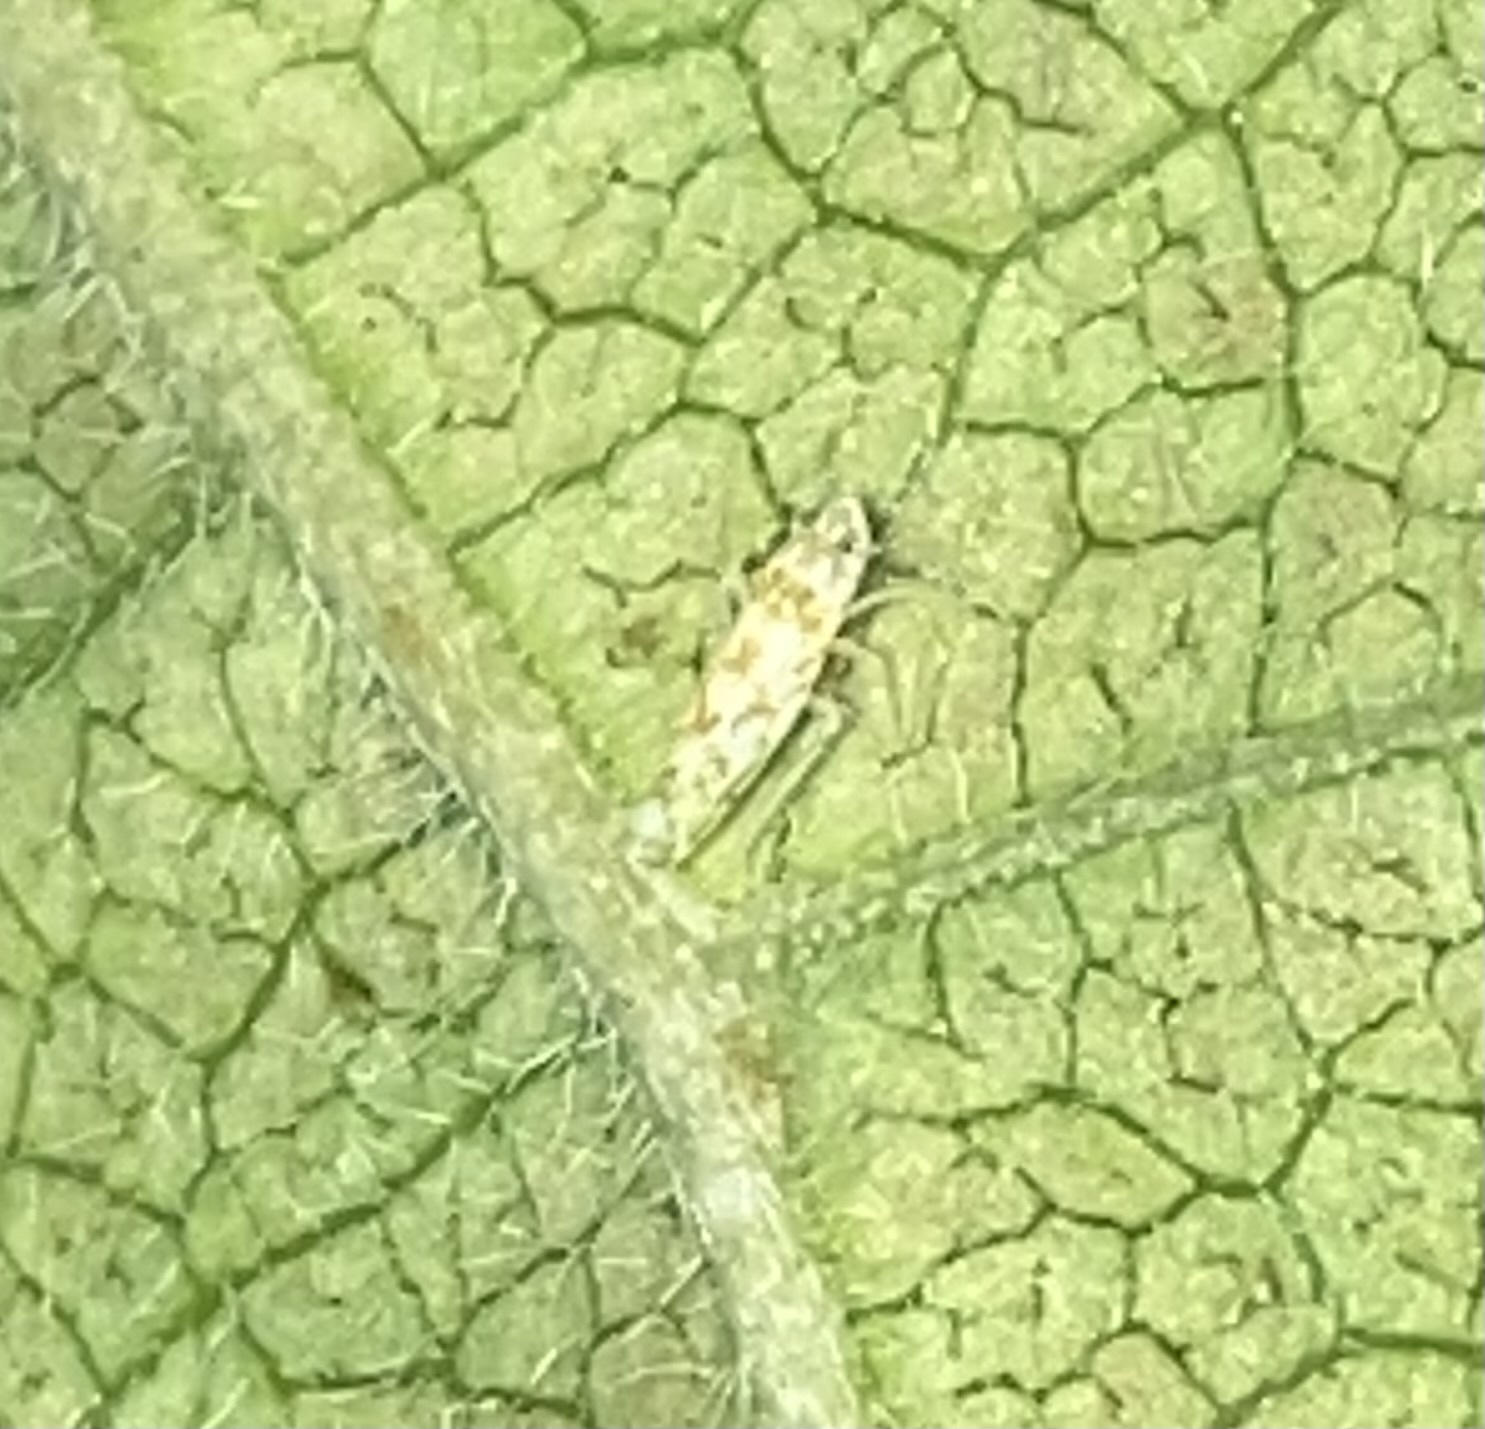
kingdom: Animalia
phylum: Arthropoda
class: Insecta
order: Hemiptera
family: Cicadellidae
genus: Protalebra
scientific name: Protalebra nexa
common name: Leafhopper
